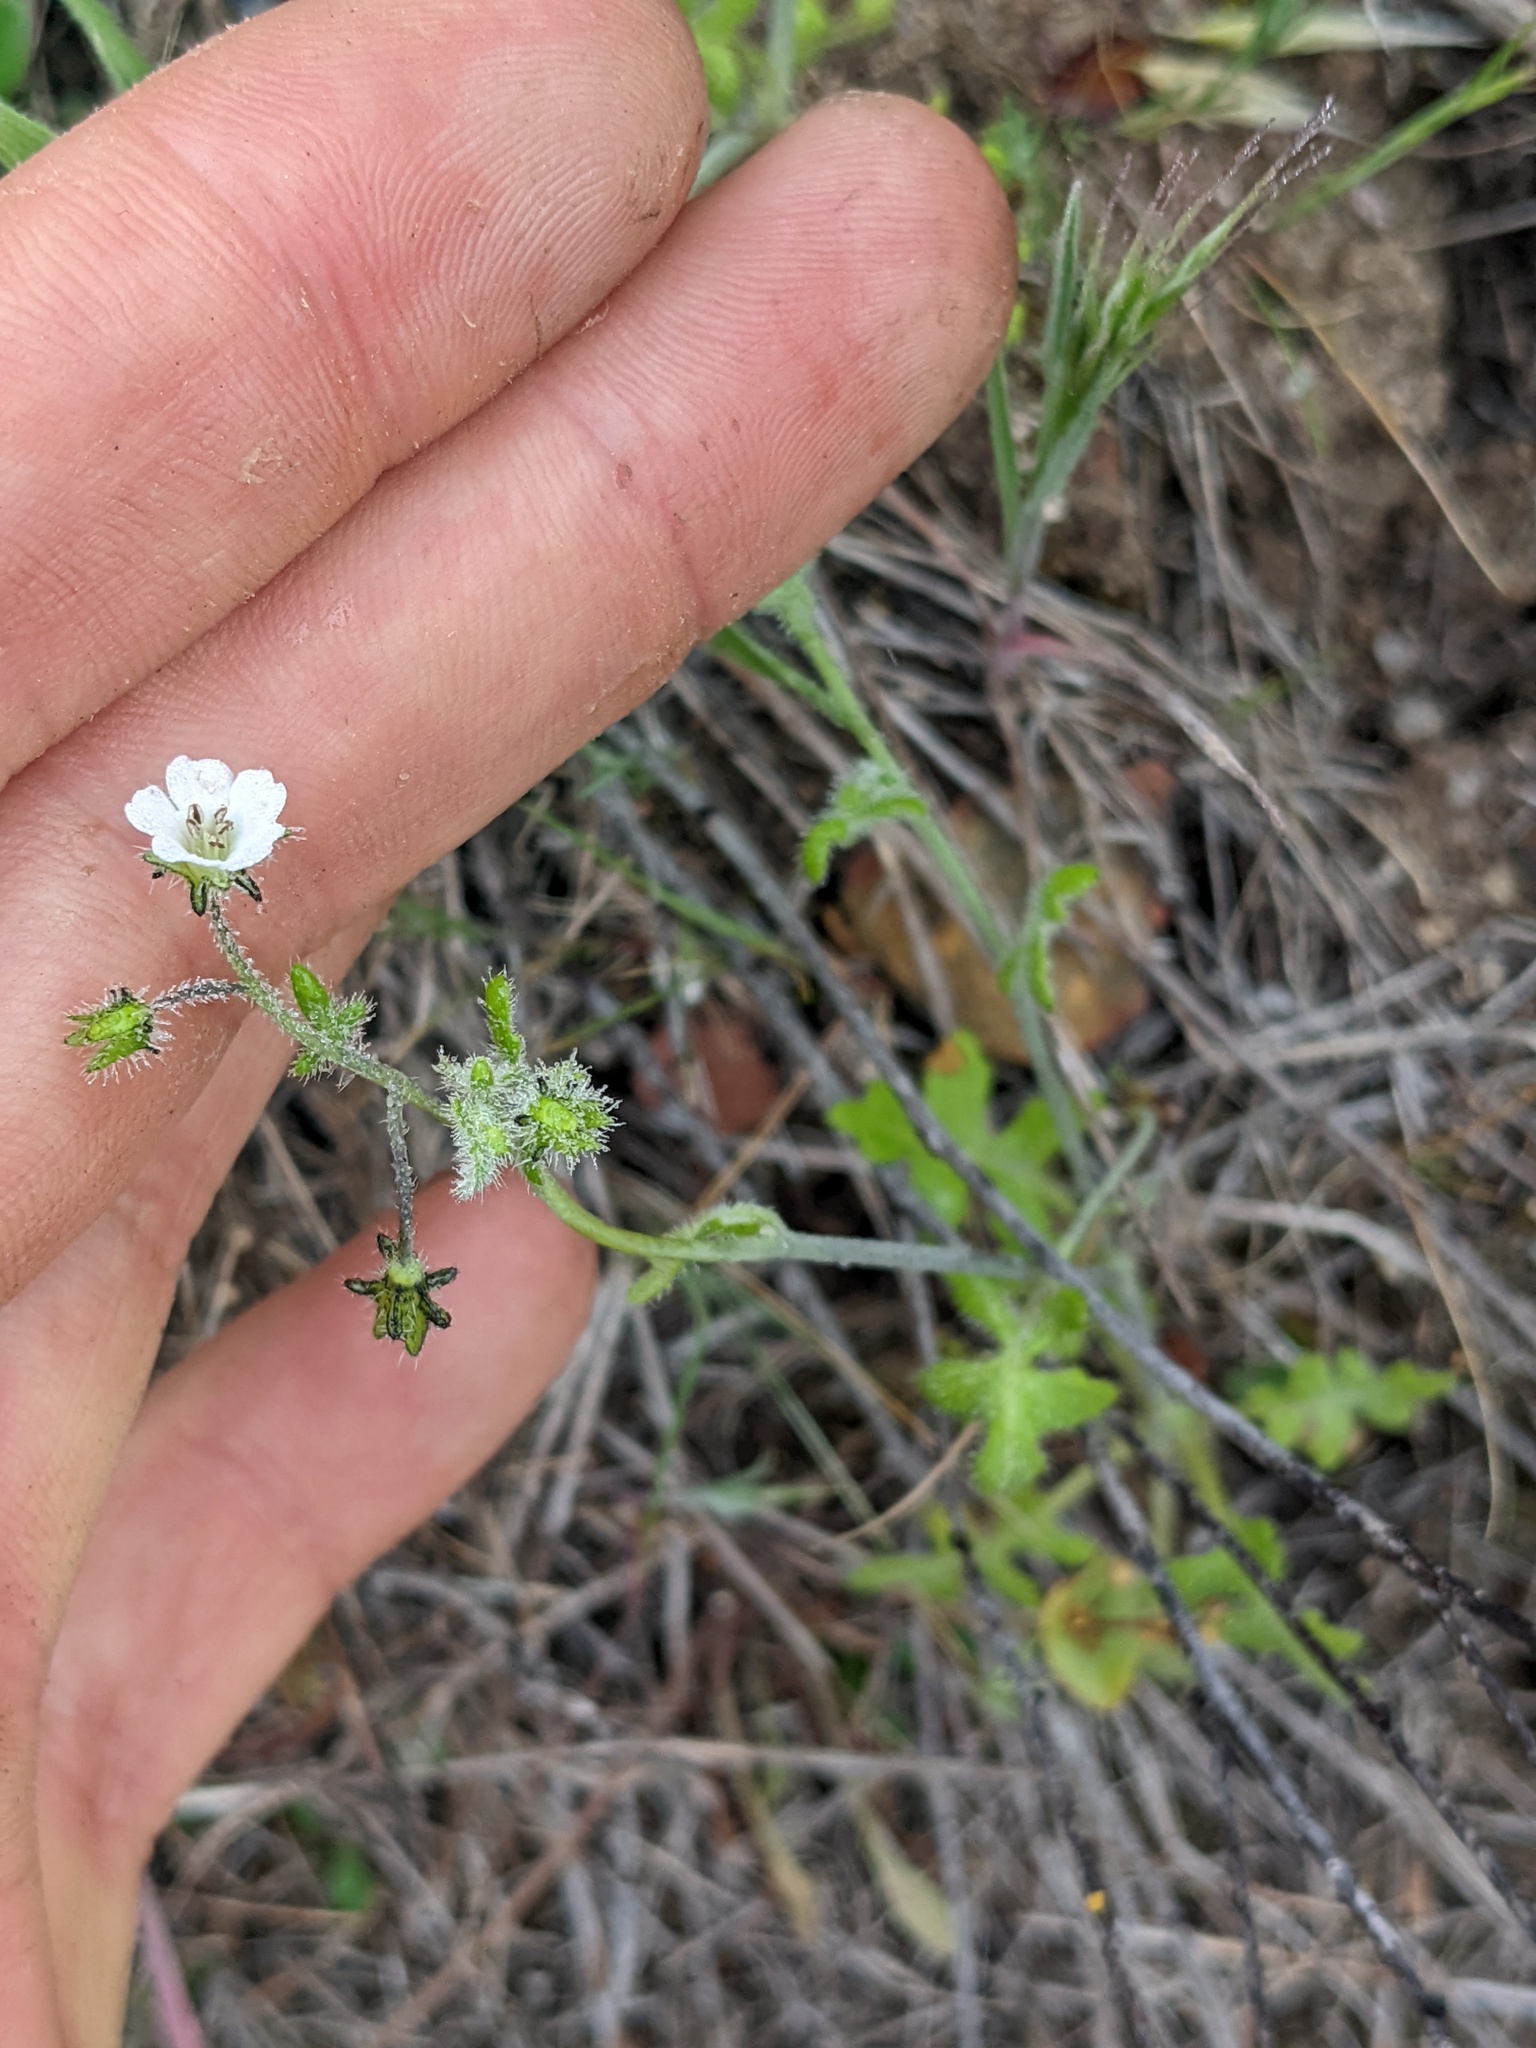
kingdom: Plantae
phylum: Tracheophyta
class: Magnoliopsida
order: Boraginales
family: Hydrophyllaceae
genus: Pholistoma
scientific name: Pholistoma racemosum
